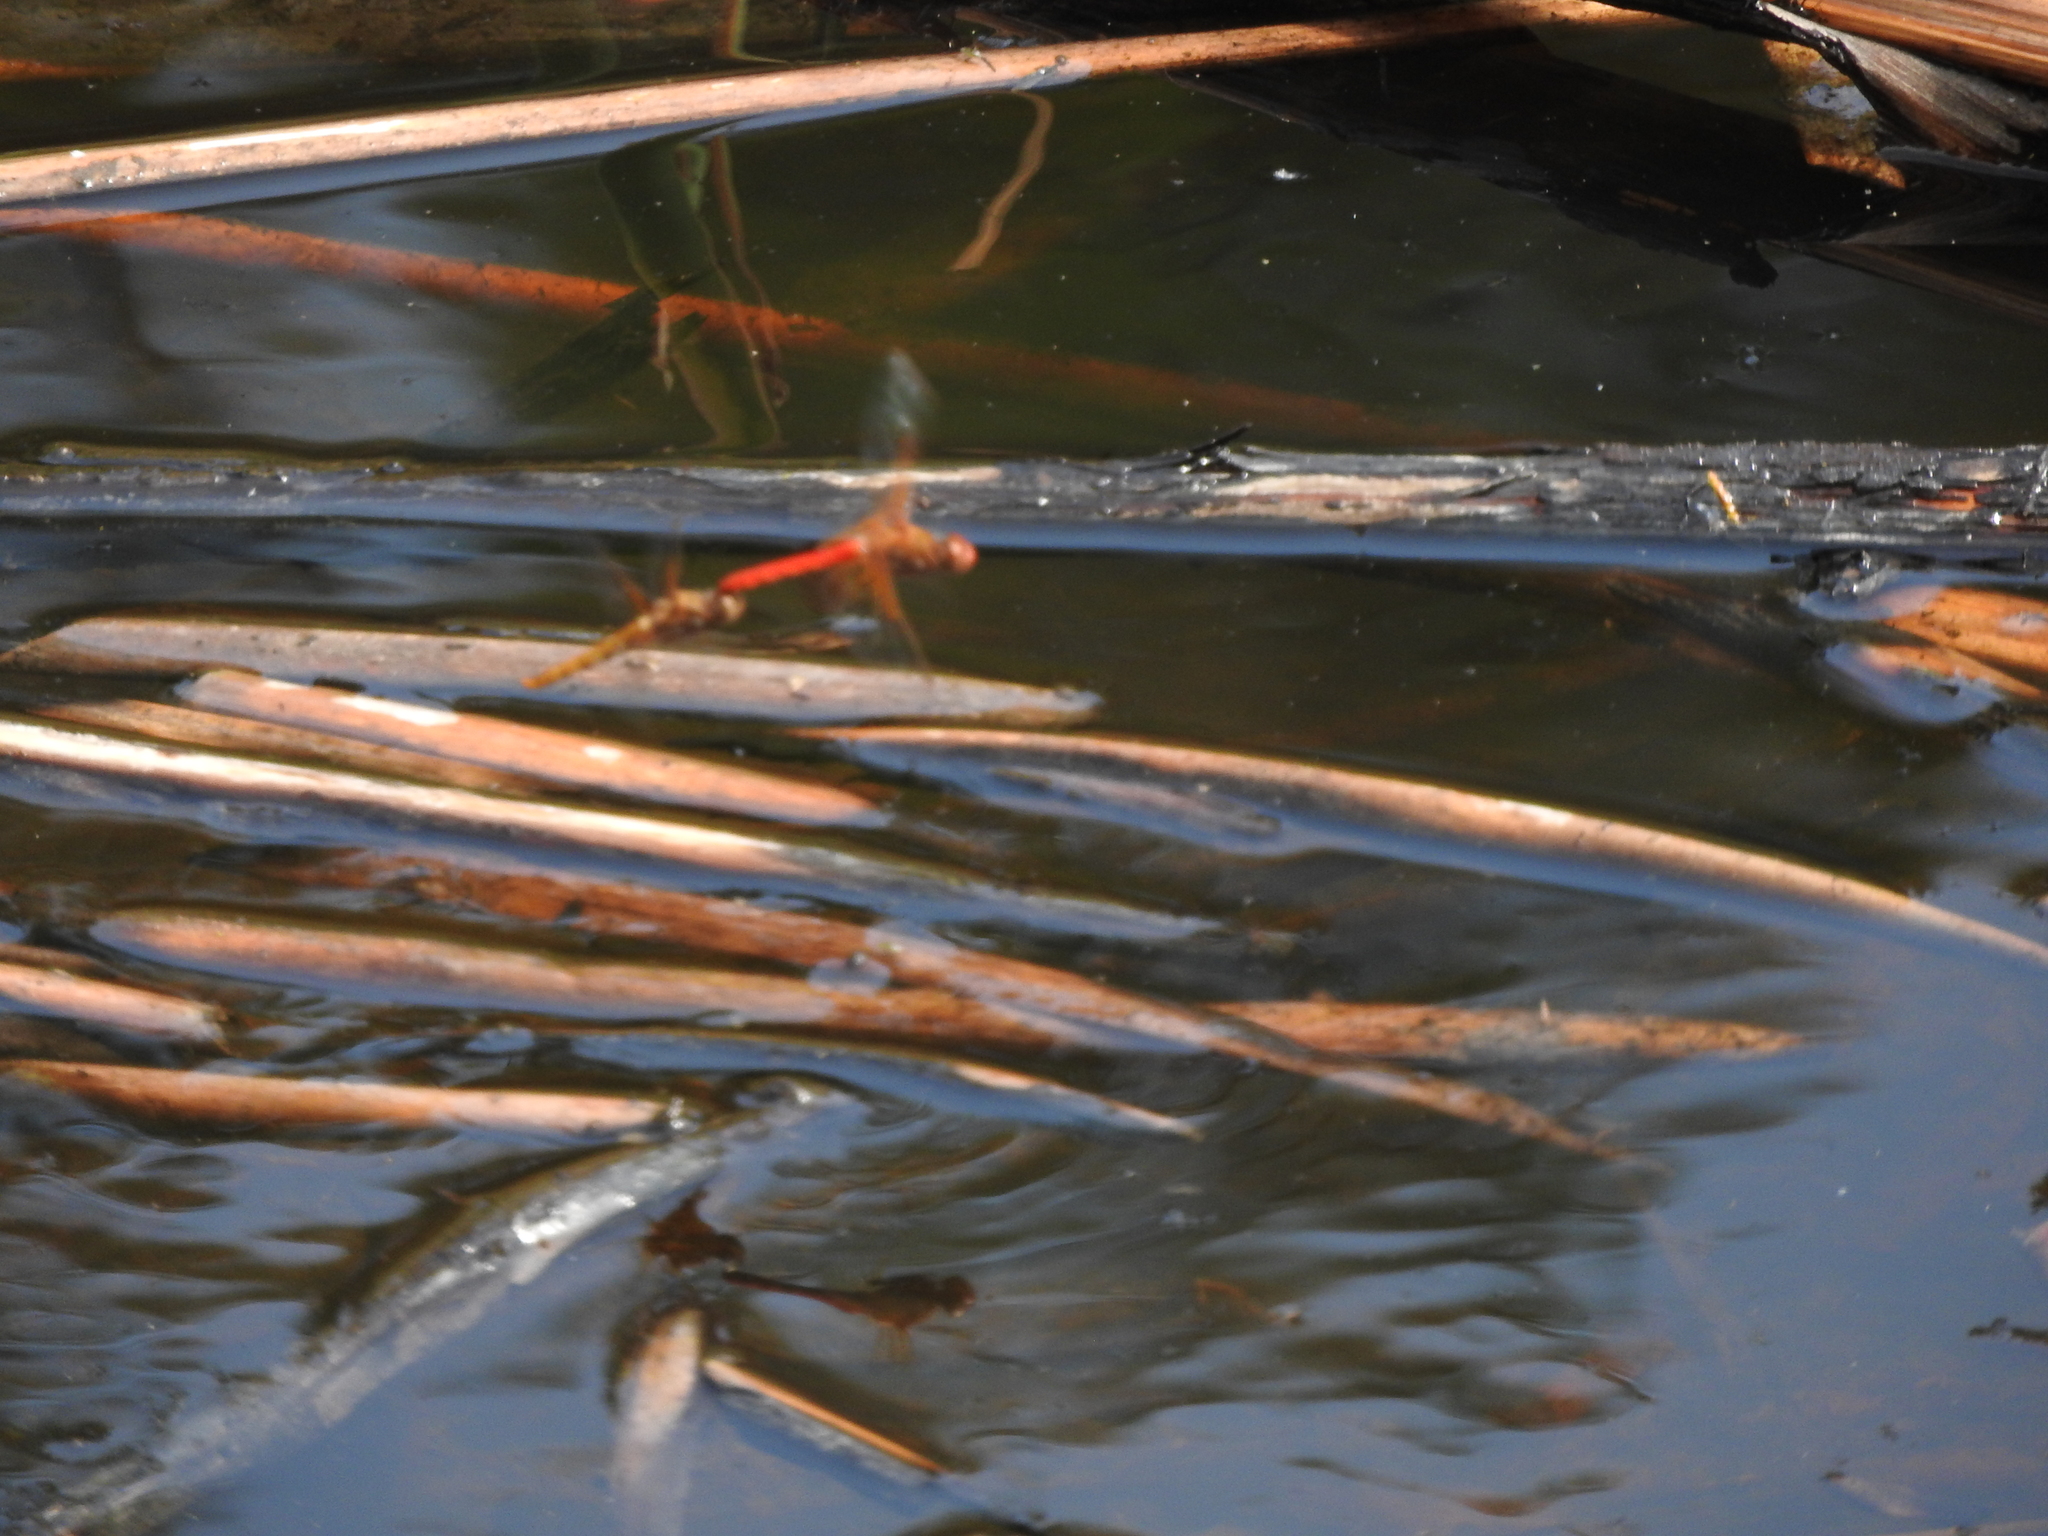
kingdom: Animalia
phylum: Arthropoda
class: Insecta
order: Odonata
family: Libellulidae
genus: Sympetrum
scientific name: Sympetrum illotum
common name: Cardinal meadowhawk
